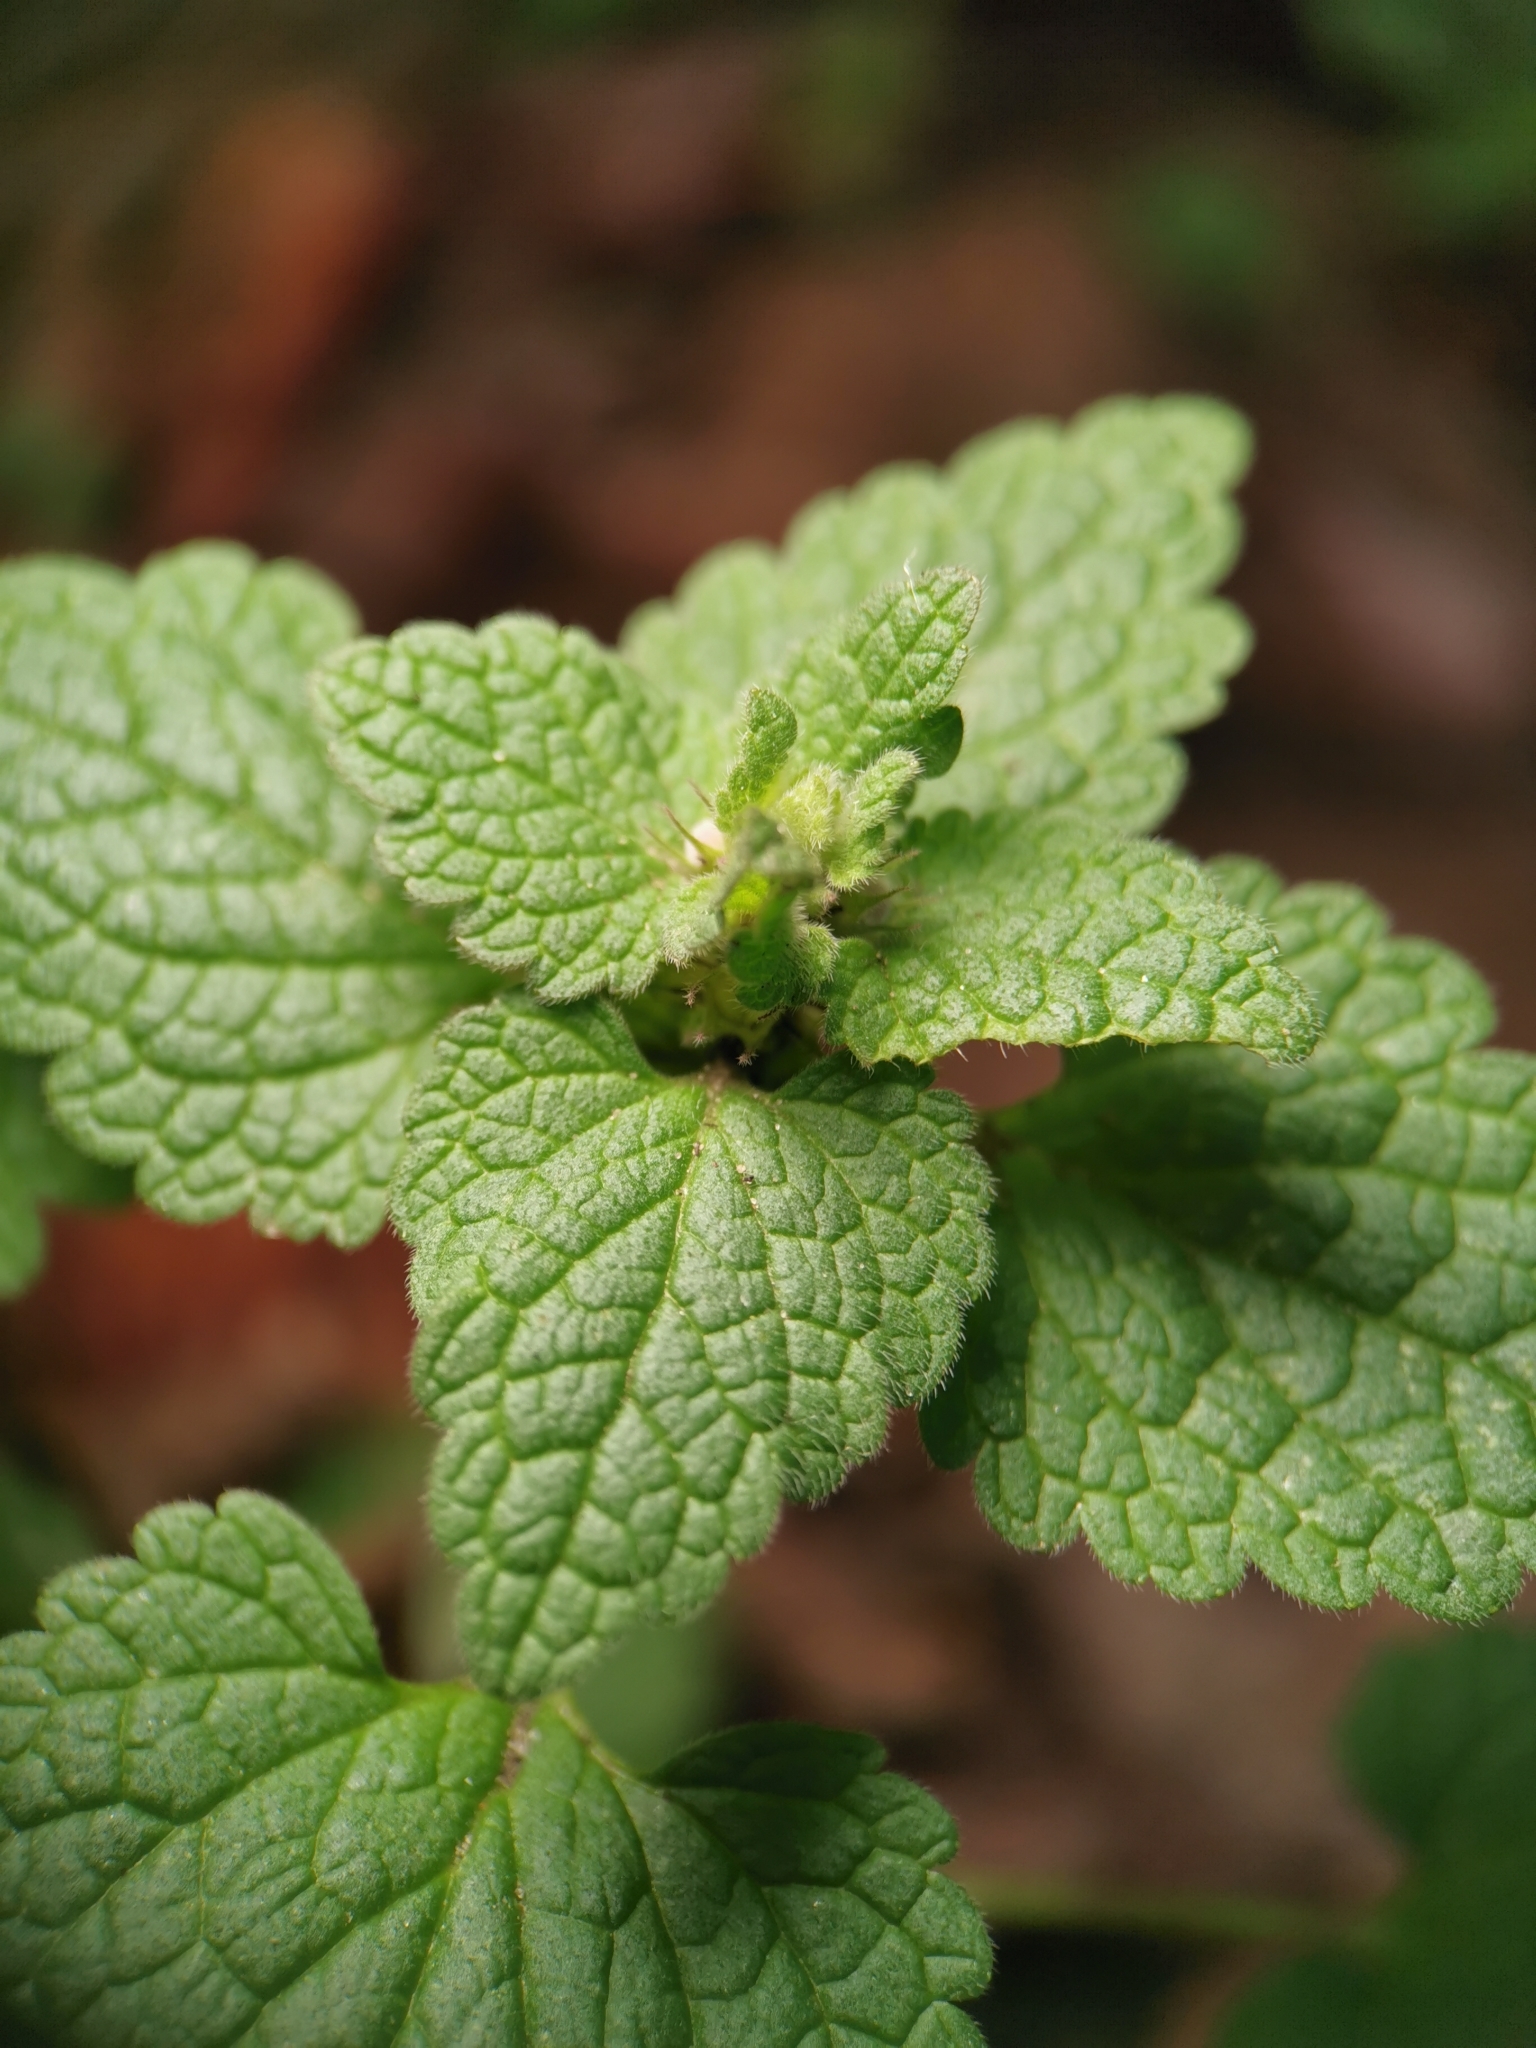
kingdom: Plantae
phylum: Tracheophyta
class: Magnoliopsida
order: Lamiales
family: Lamiaceae
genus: Lamium
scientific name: Lamium purpureum
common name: Red dead-nettle
